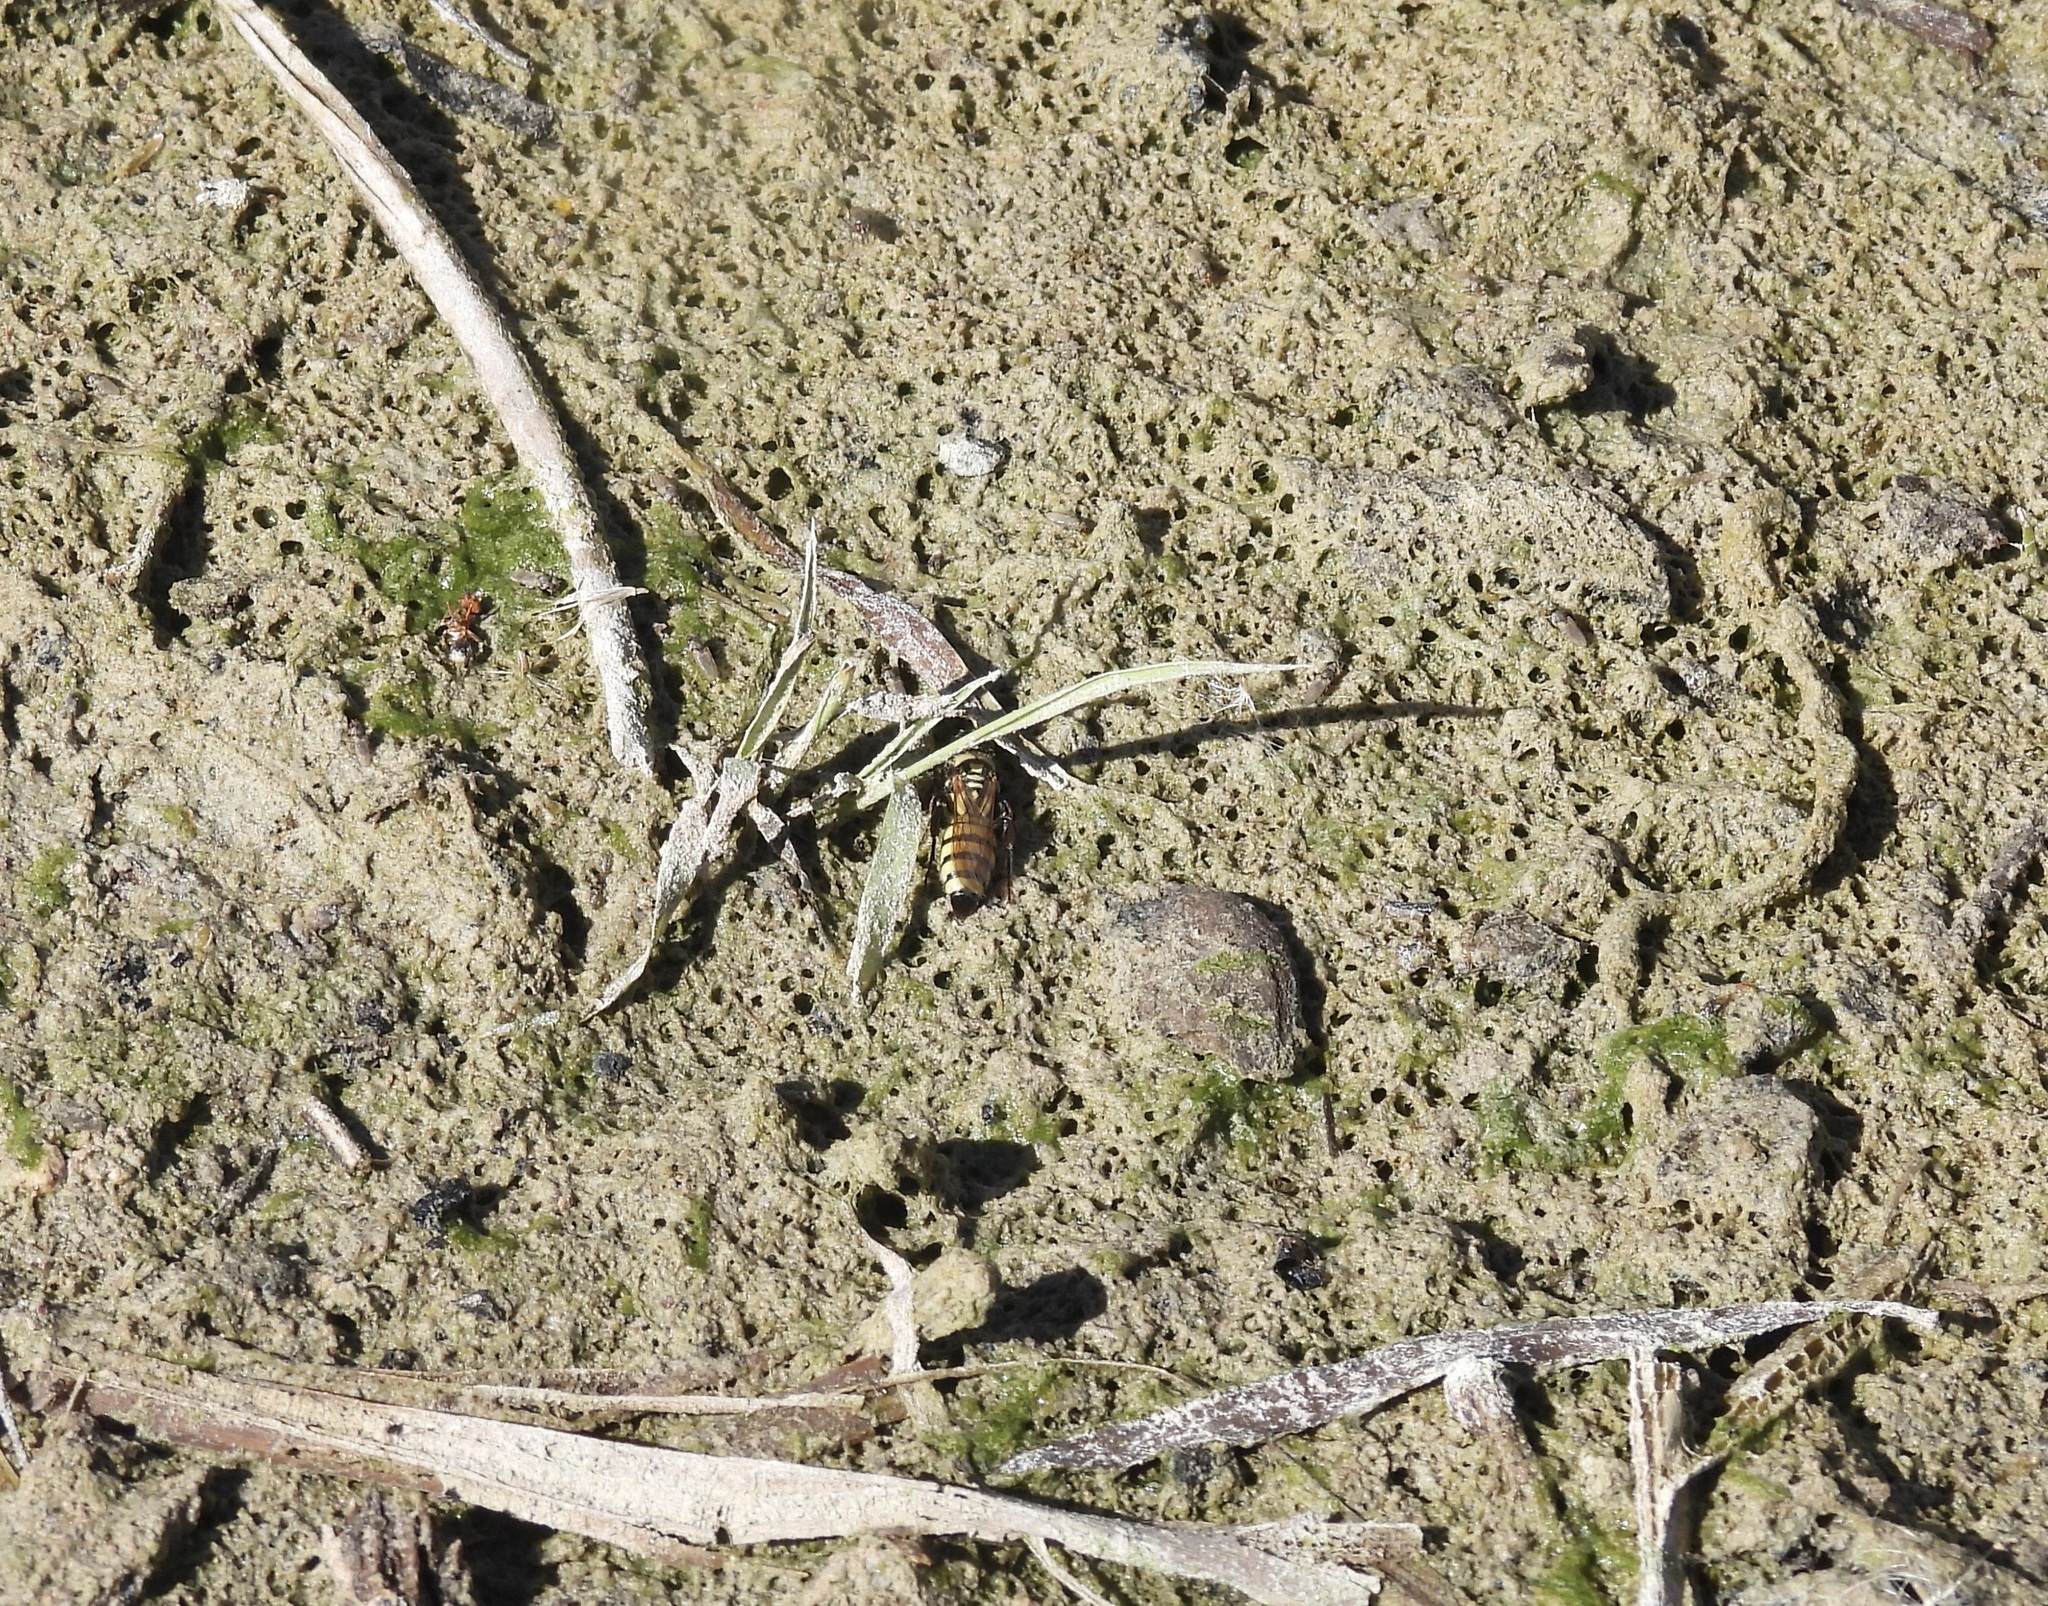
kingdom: Animalia
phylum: Arthropoda
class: Insecta
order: Hymenoptera
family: Tiphiidae
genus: Myzinum
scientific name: Myzinum frontalis
